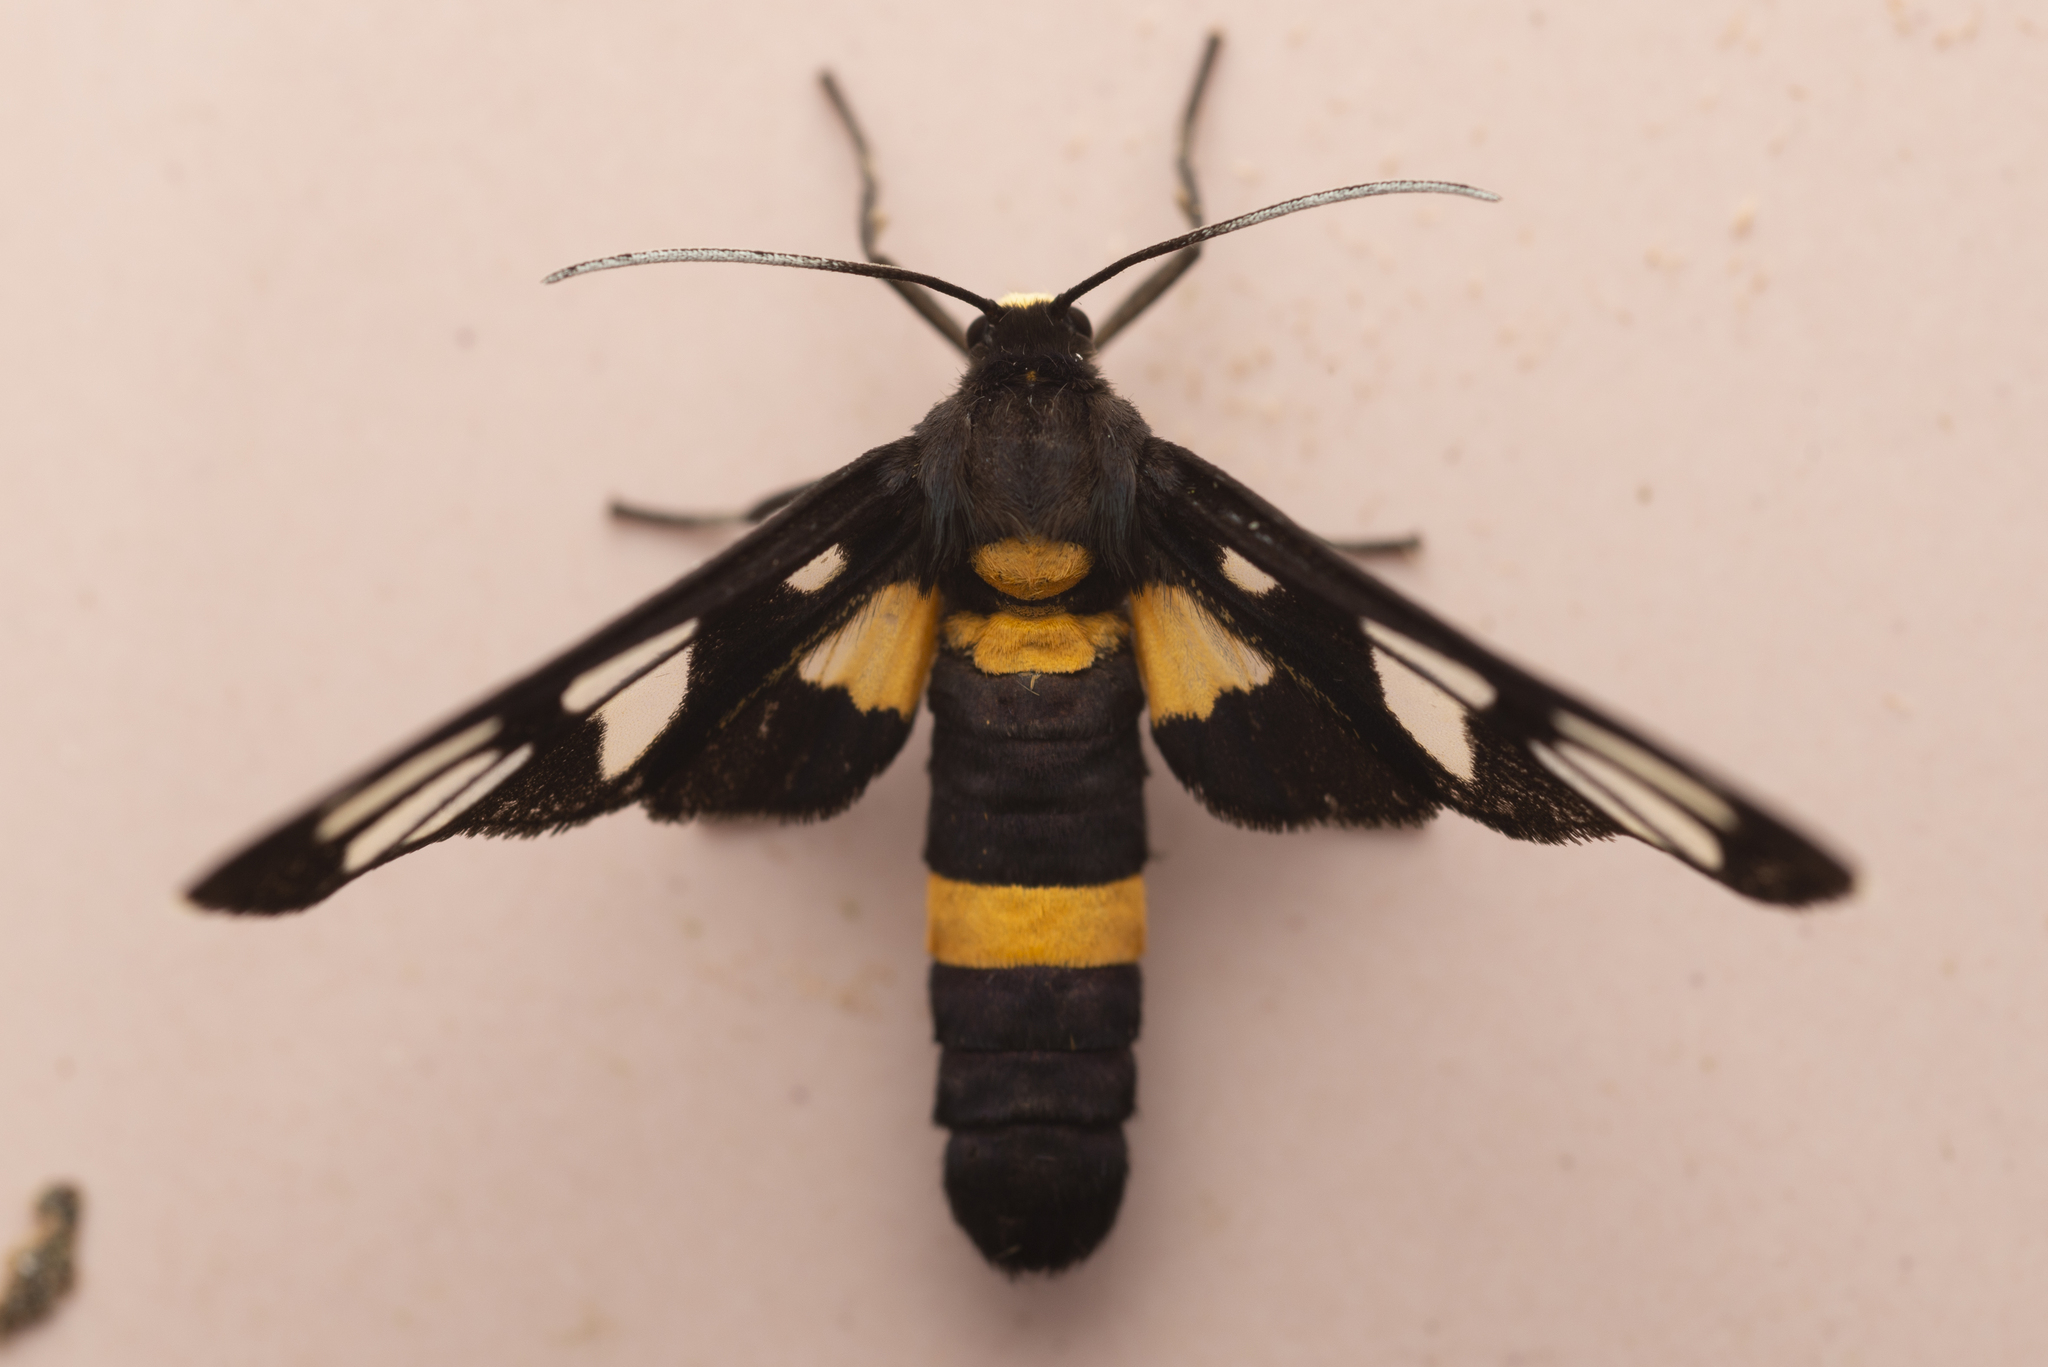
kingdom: Animalia
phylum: Arthropoda
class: Insecta
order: Lepidoptera
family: Erebidae
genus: Amata
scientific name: Amata sperbius
